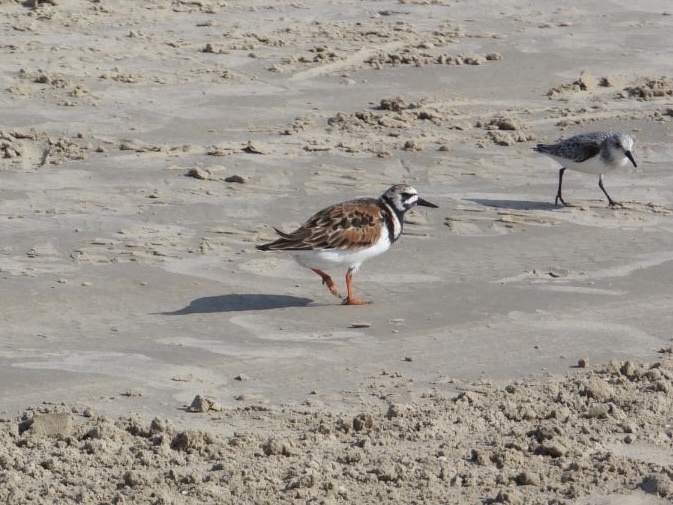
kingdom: Animalia
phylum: Chordata
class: Aves
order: Charadriiformes
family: Scolopacidae
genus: Arenaria
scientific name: Arenaria interpres
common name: Ruddy turnstone
